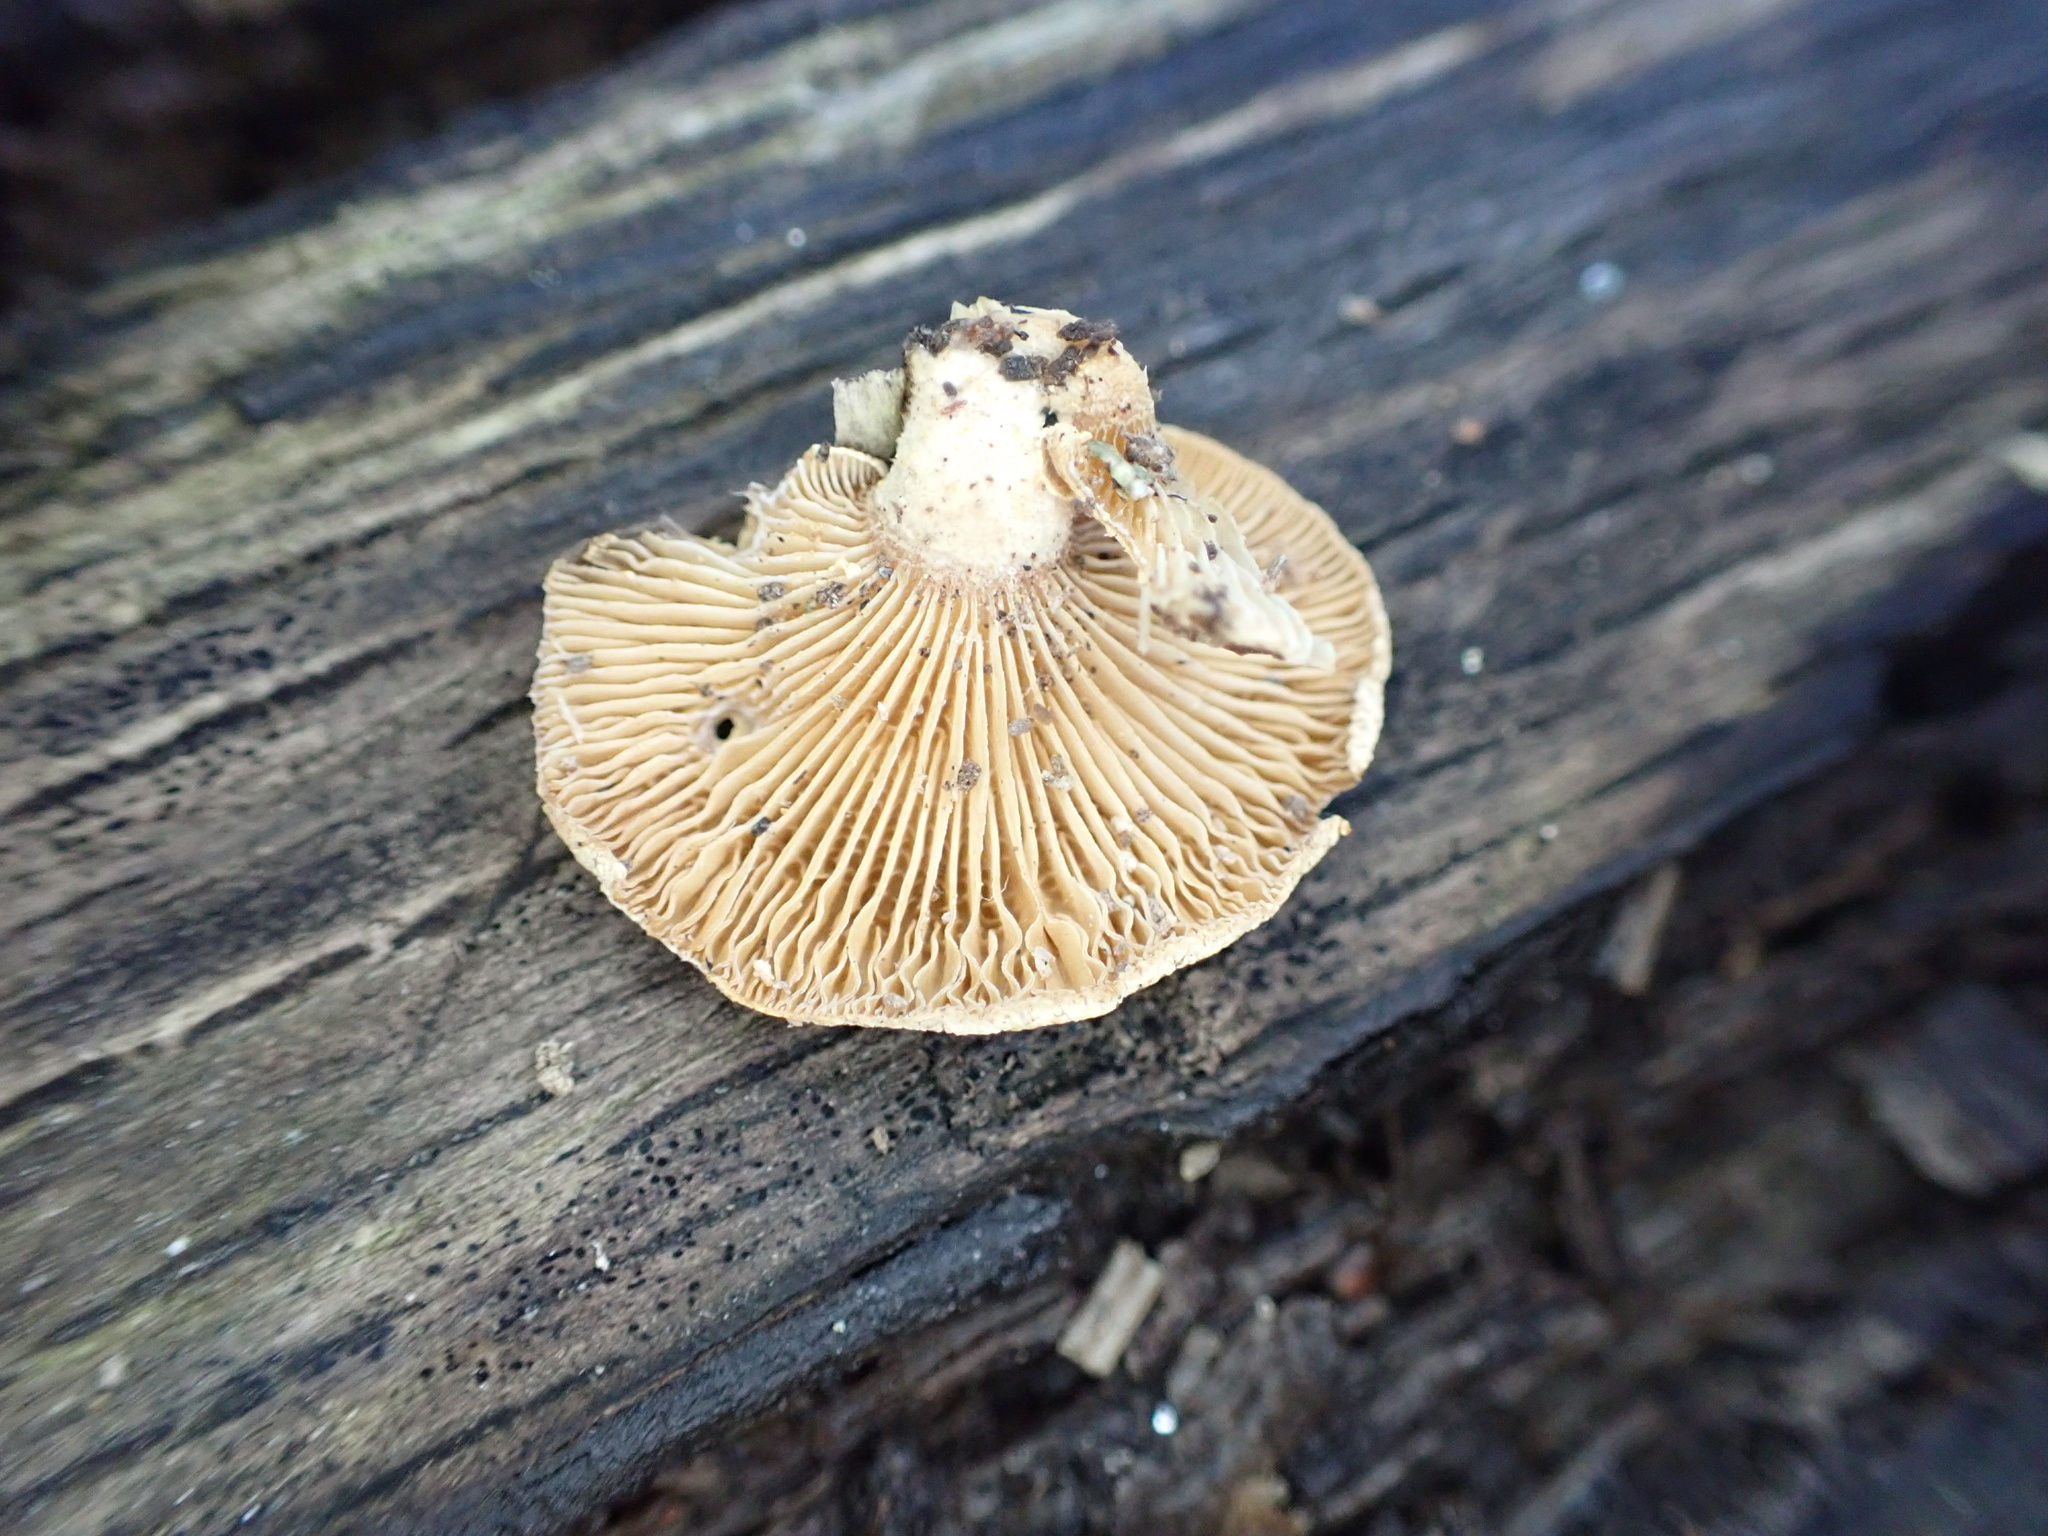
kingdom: Fungi
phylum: Basidiomycota
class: Agaricomycetes
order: Agaricales
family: Mycenaceae
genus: Panellus
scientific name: Panellus stipticus
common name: Bitter oysterling
